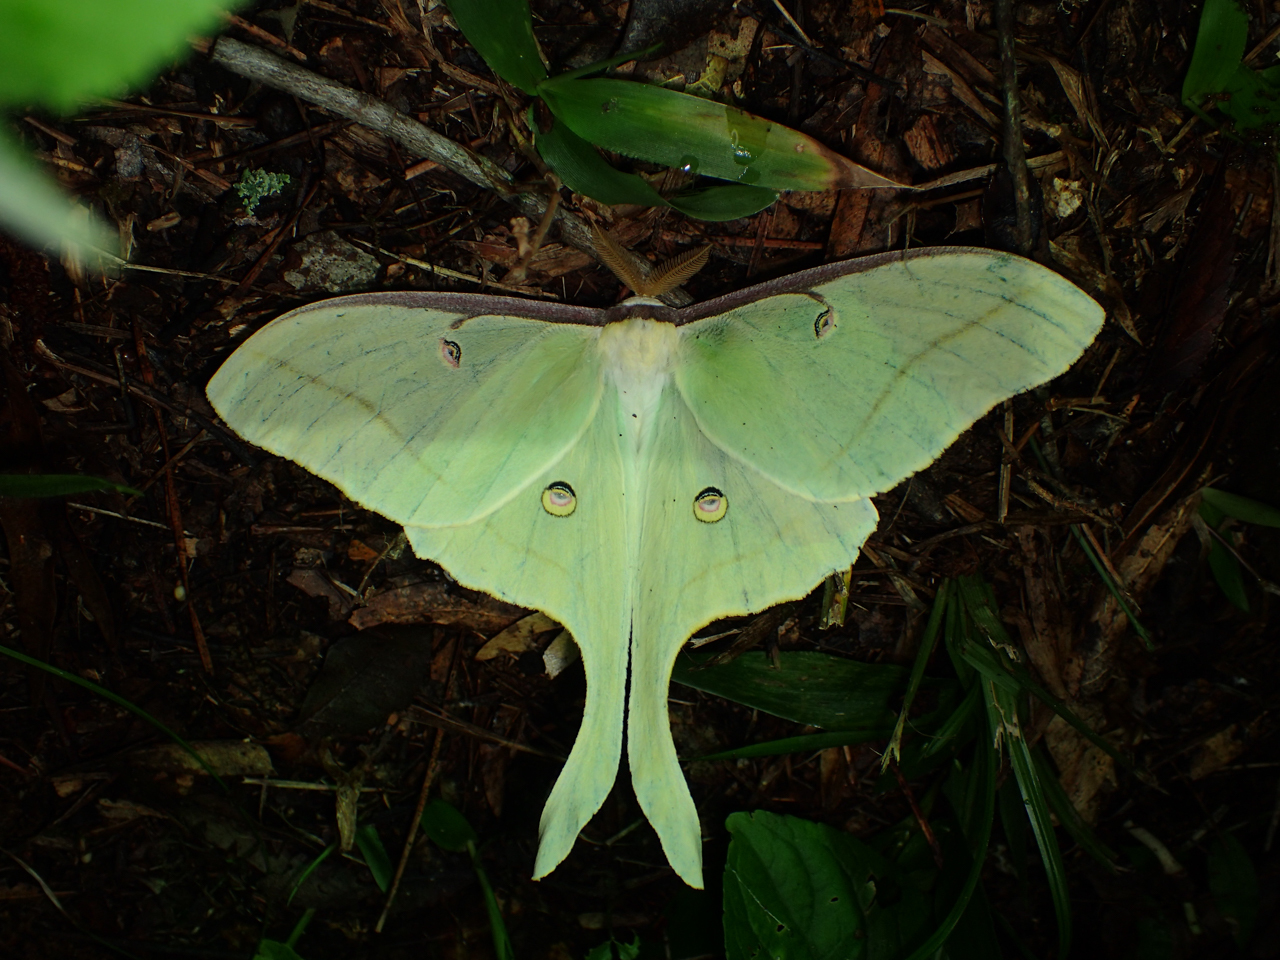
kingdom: Animalia
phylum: Arthropoda
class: Insecta
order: Lepidoptera
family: Saturniidae
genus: Actias
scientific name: Actias luna
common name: Luna moth
